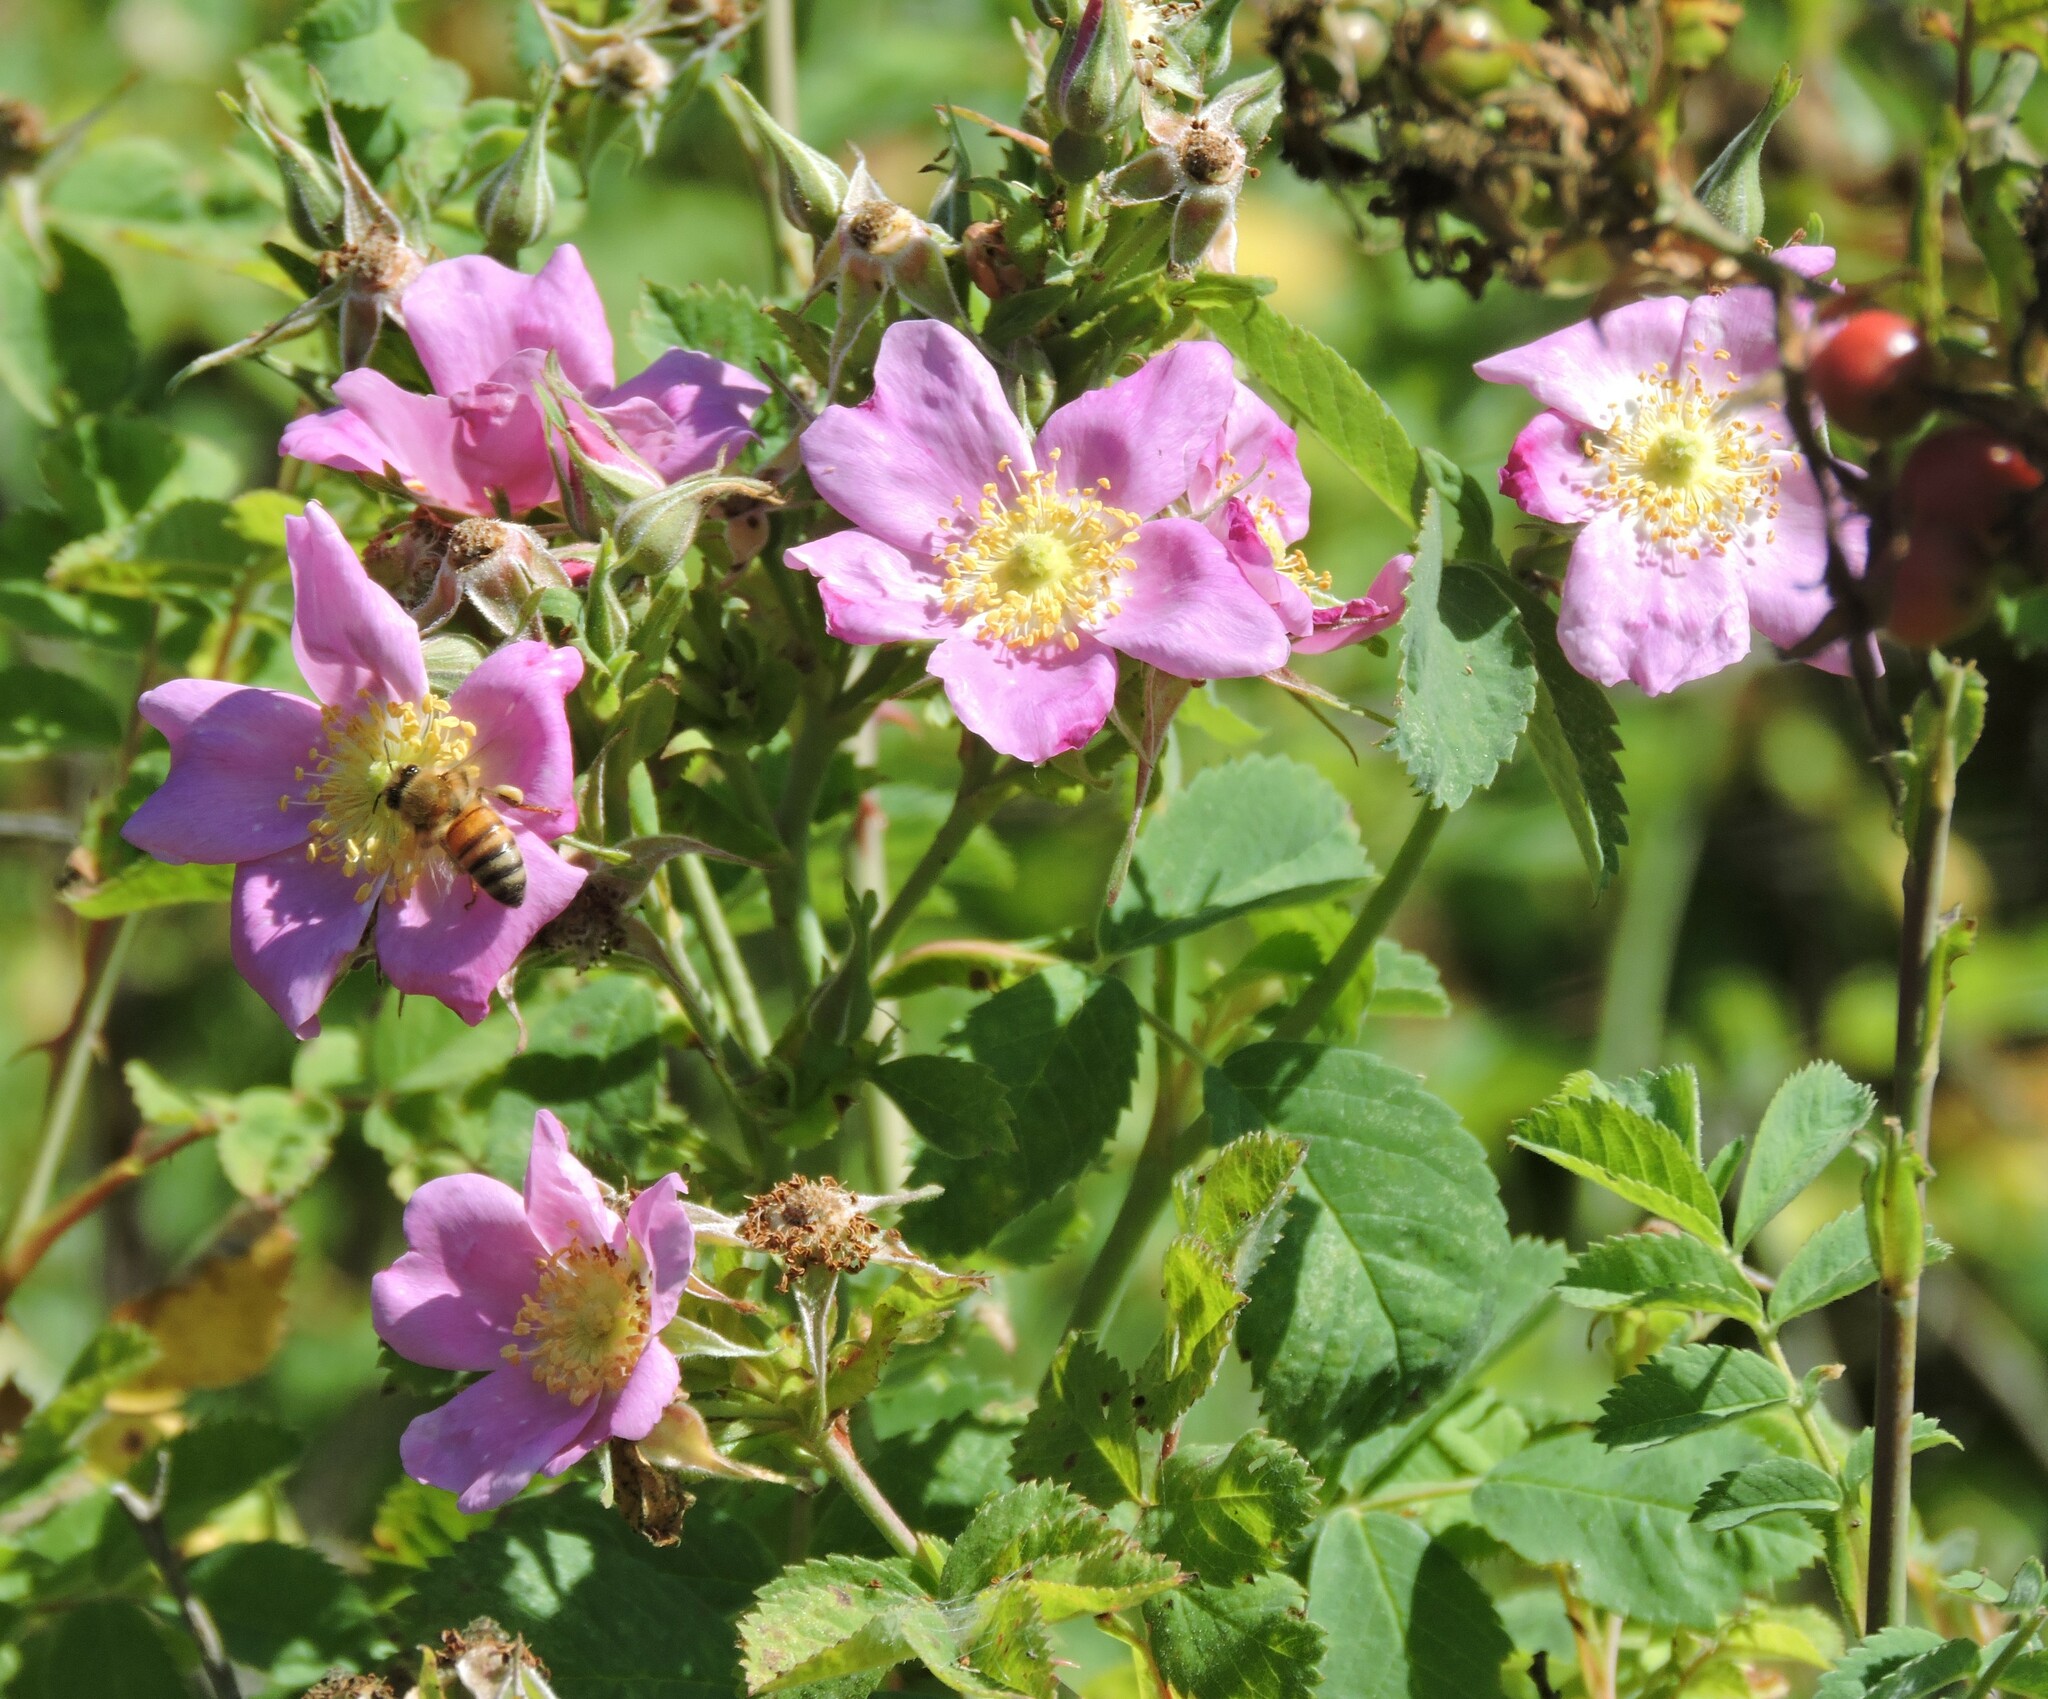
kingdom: Plantae
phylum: Tracheophyta
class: Magnoliopsida
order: Rosales
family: Rosaceae
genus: Rosa
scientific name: Rosa californica
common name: California rose
